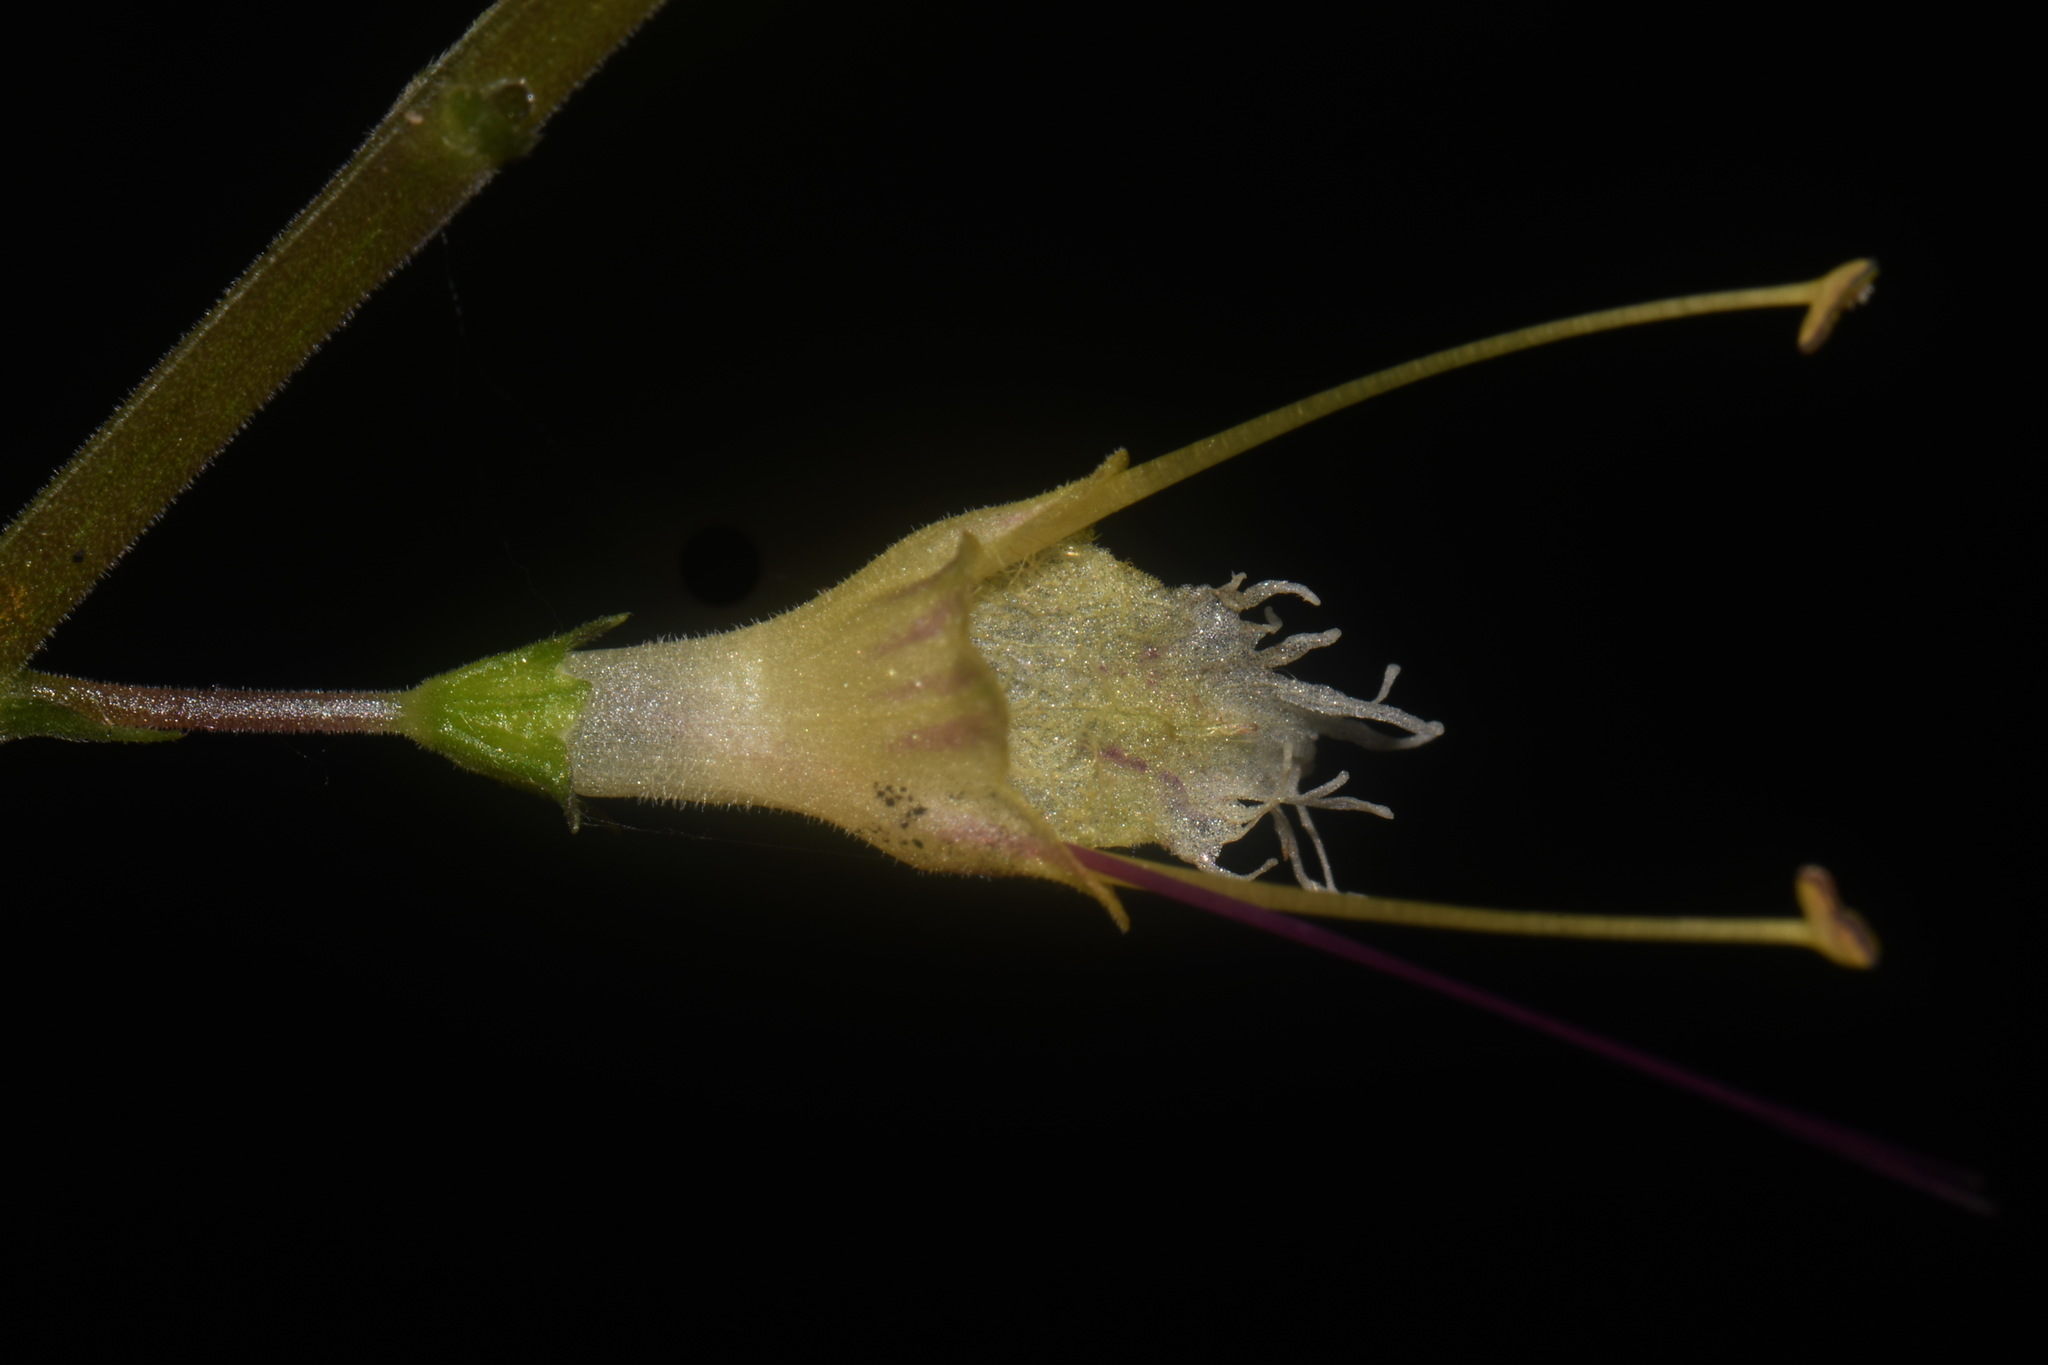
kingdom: Plantae
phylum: Tracheophyta
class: Magnoliopsida
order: Lamiales
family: Lamiaceae
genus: Collinsonia
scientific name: Collinsonia canadensis
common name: Northern horsebalm
